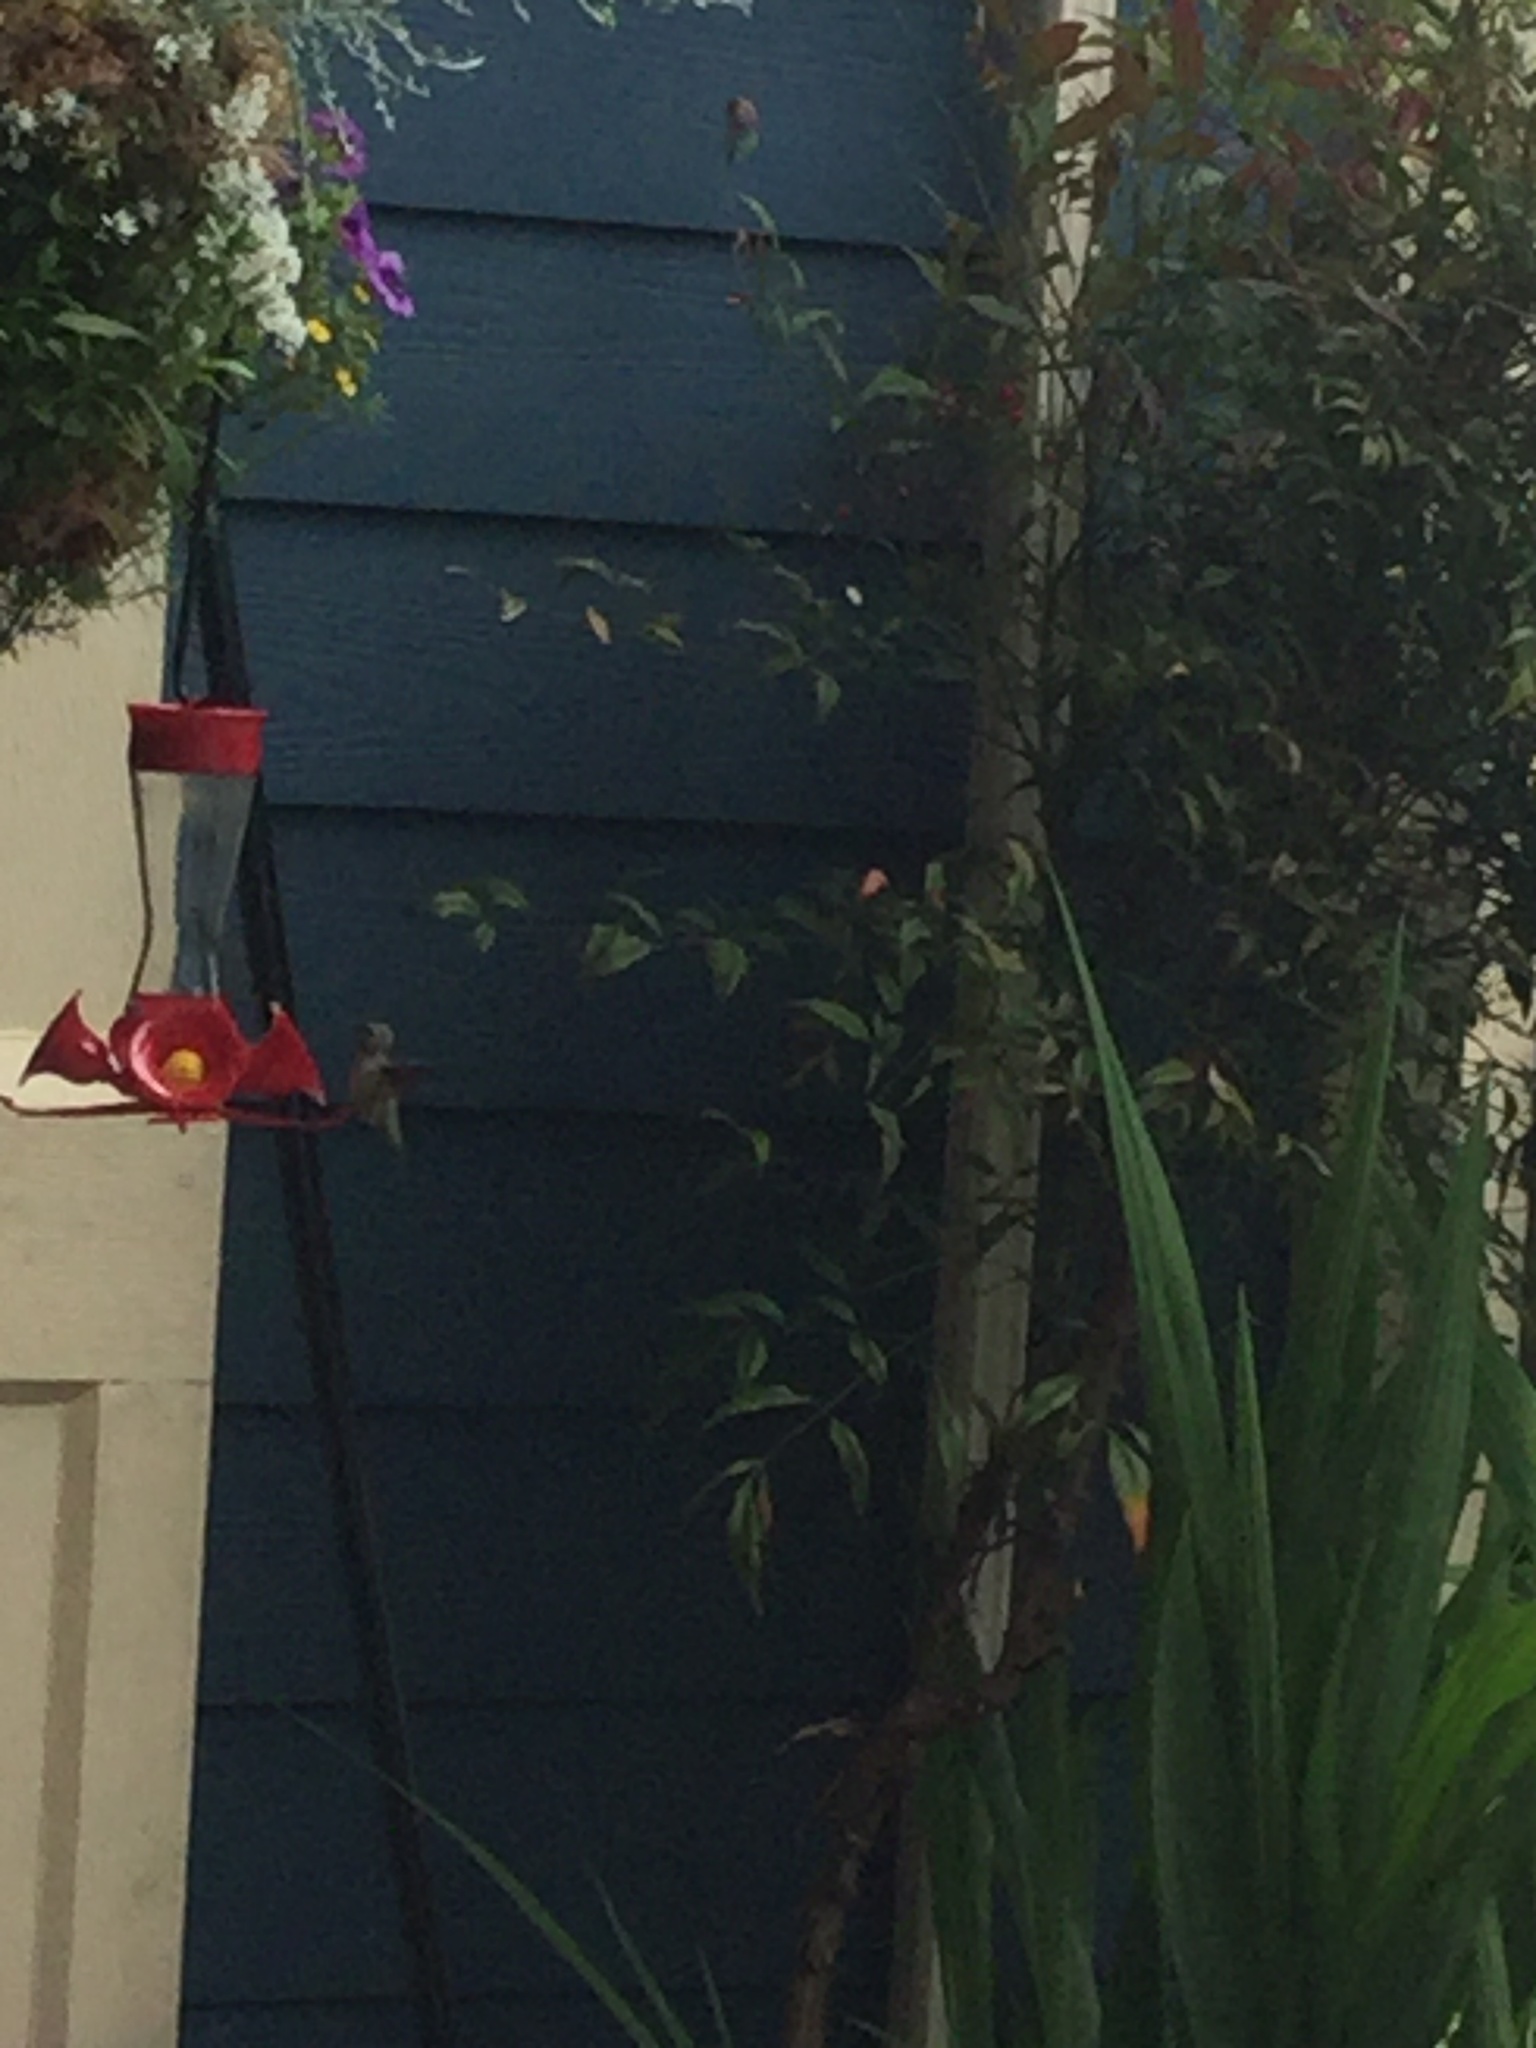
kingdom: Animalia
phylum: Chordata
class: Aves
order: Apodiformes
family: Trochilidae
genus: Calypte
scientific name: Calypte anna
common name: Anna's hummingbird
